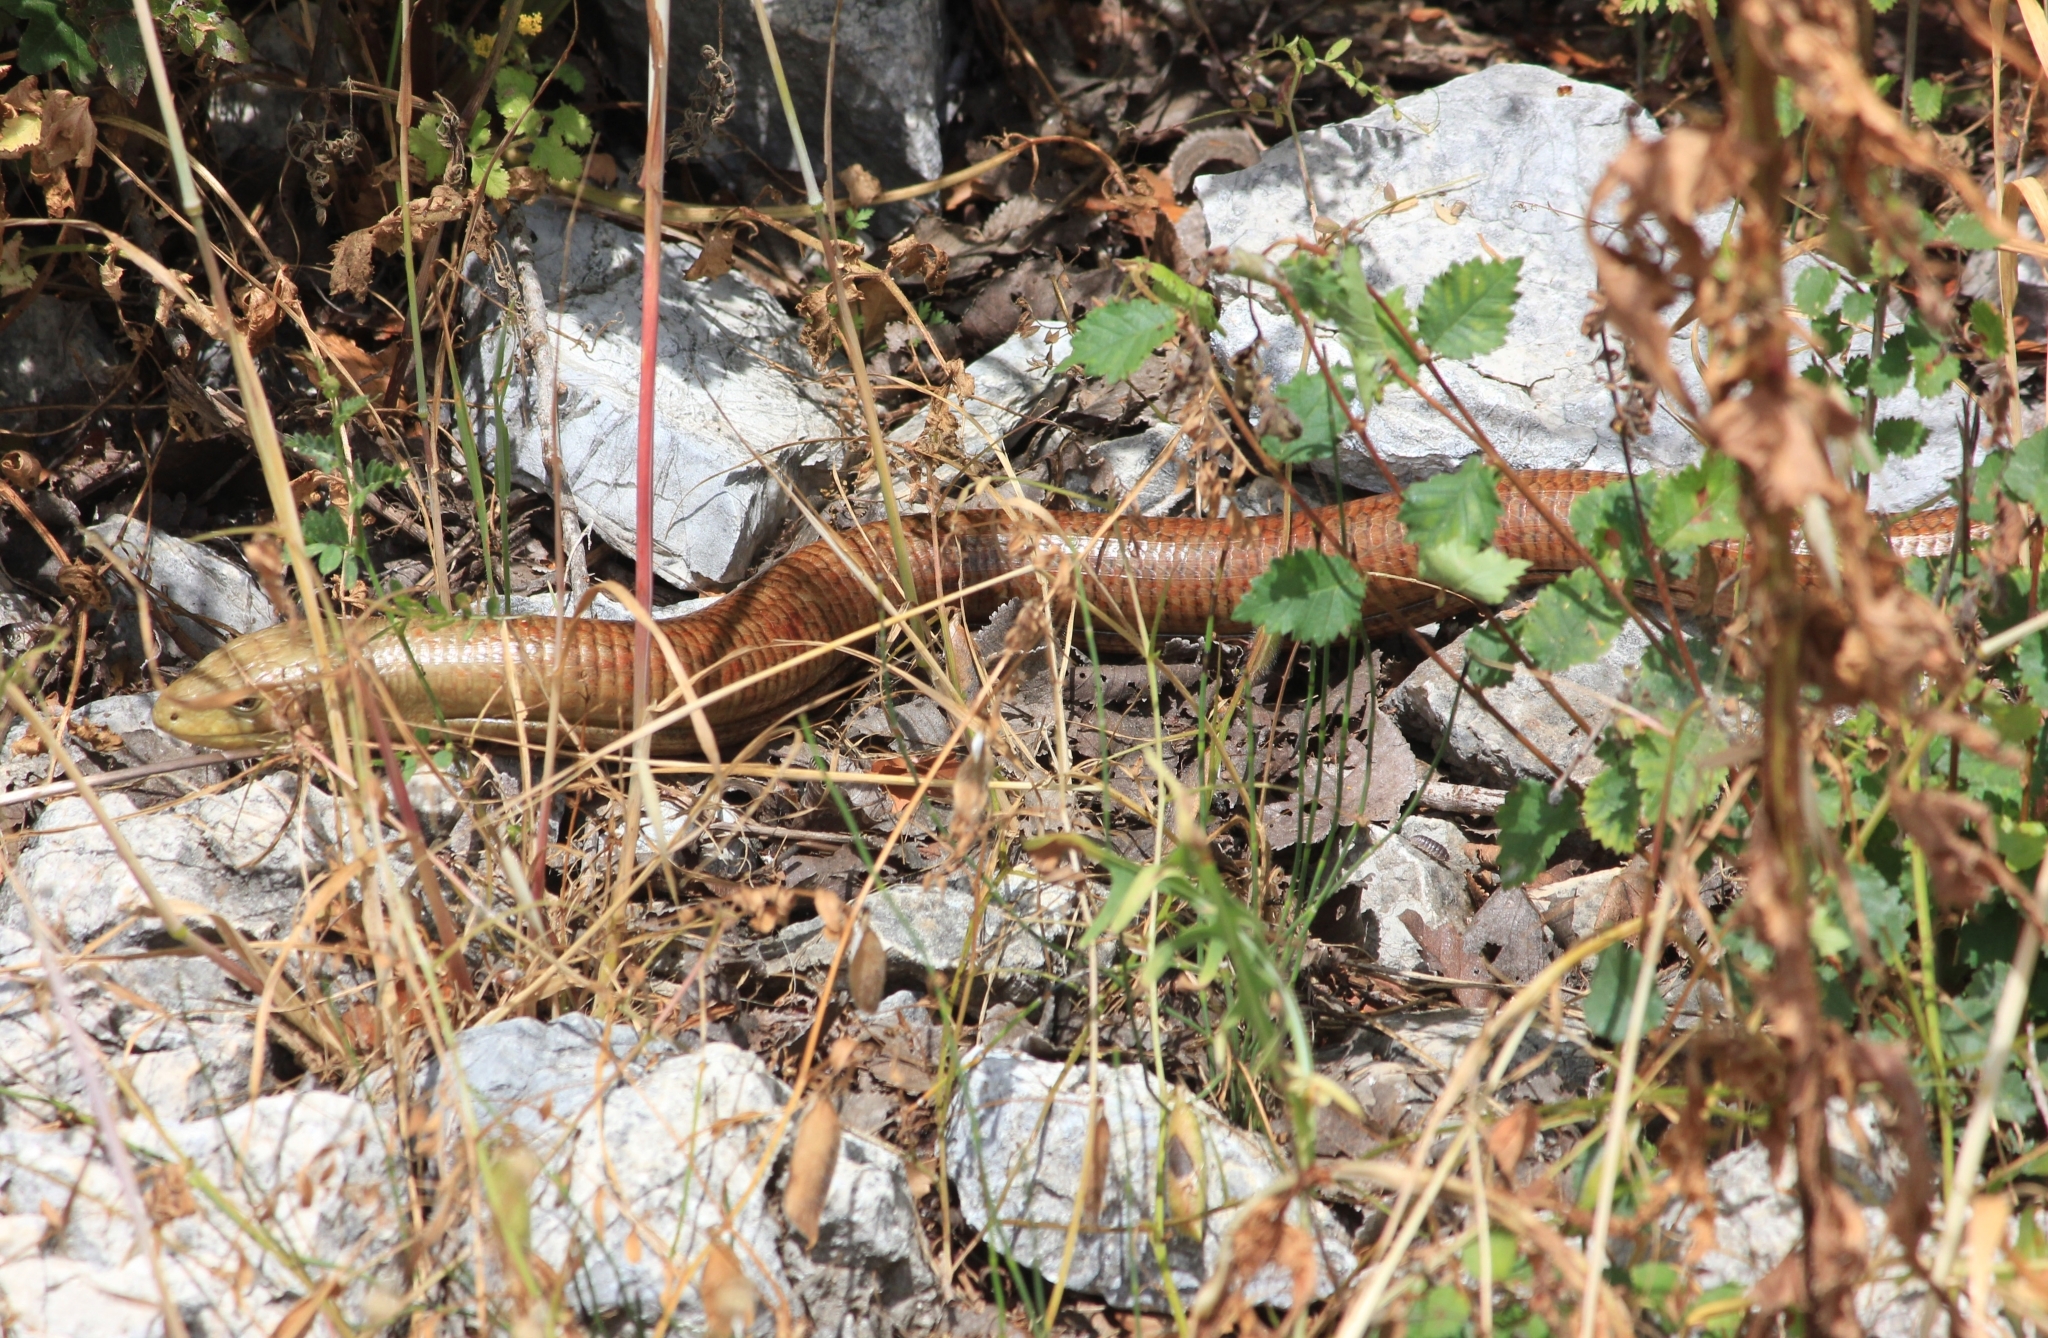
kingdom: Animalia
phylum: Chordata
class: Squamata
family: Anguidae
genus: Pseudopus
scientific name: Pseudopus apodus
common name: European glass lizard
